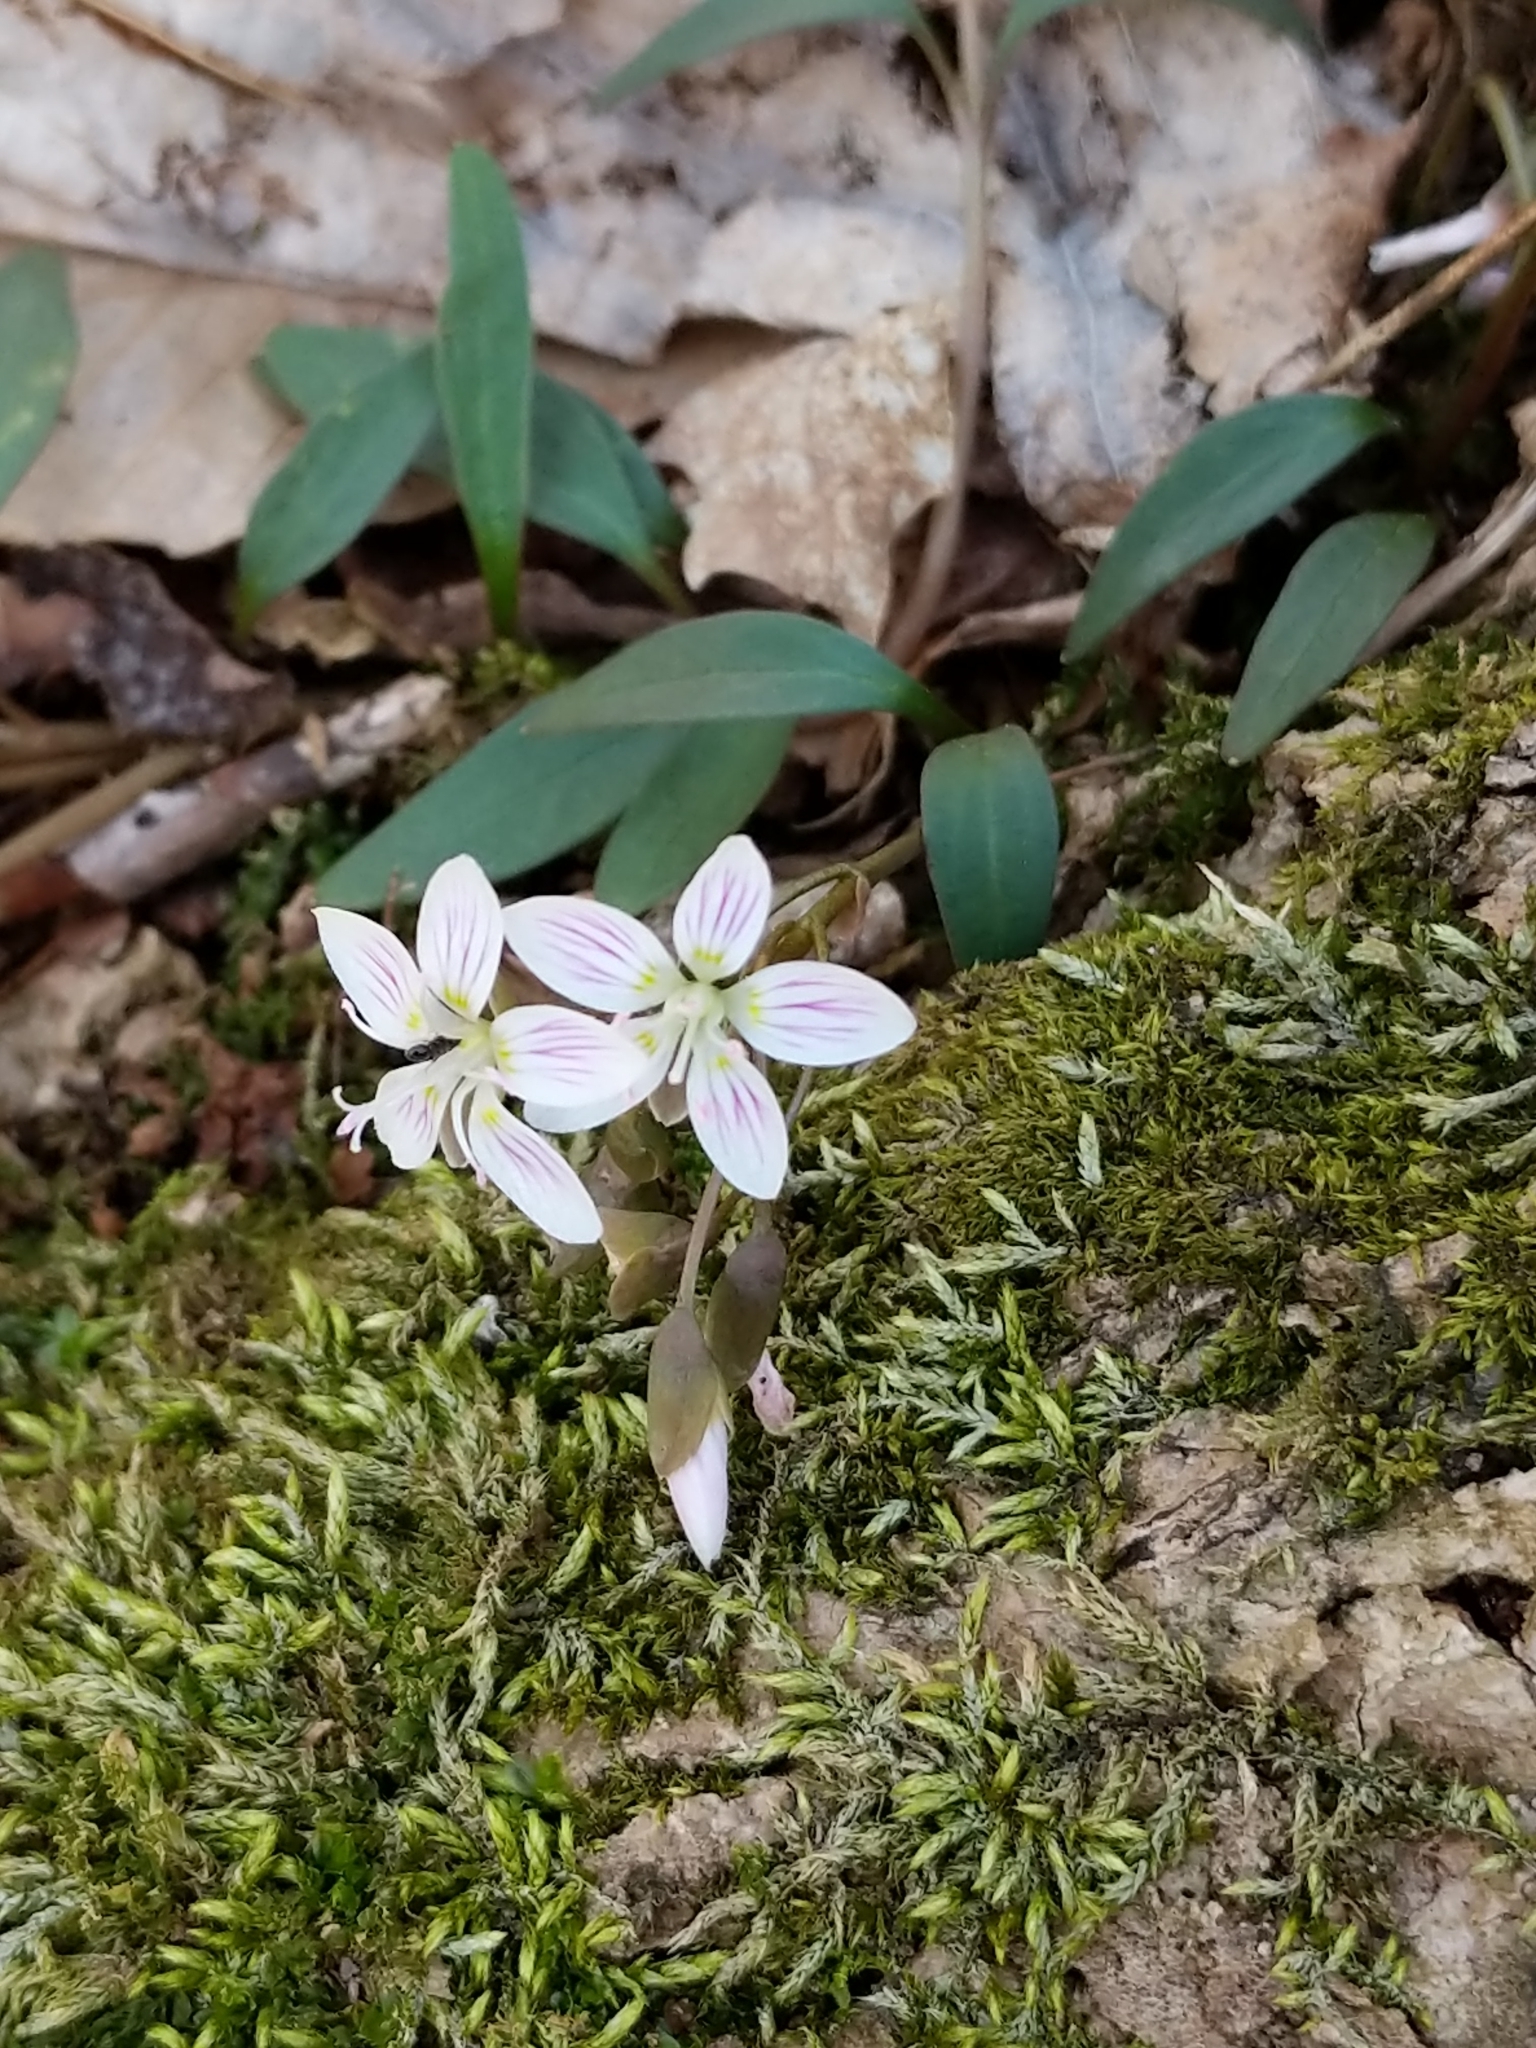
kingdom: Plantae
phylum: Tracheophyta
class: Magnoliopsida
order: Caryophyllales
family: Montiaceae
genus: Claytonia
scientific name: Claytonia caroliniana
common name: Carolina spring beauty
